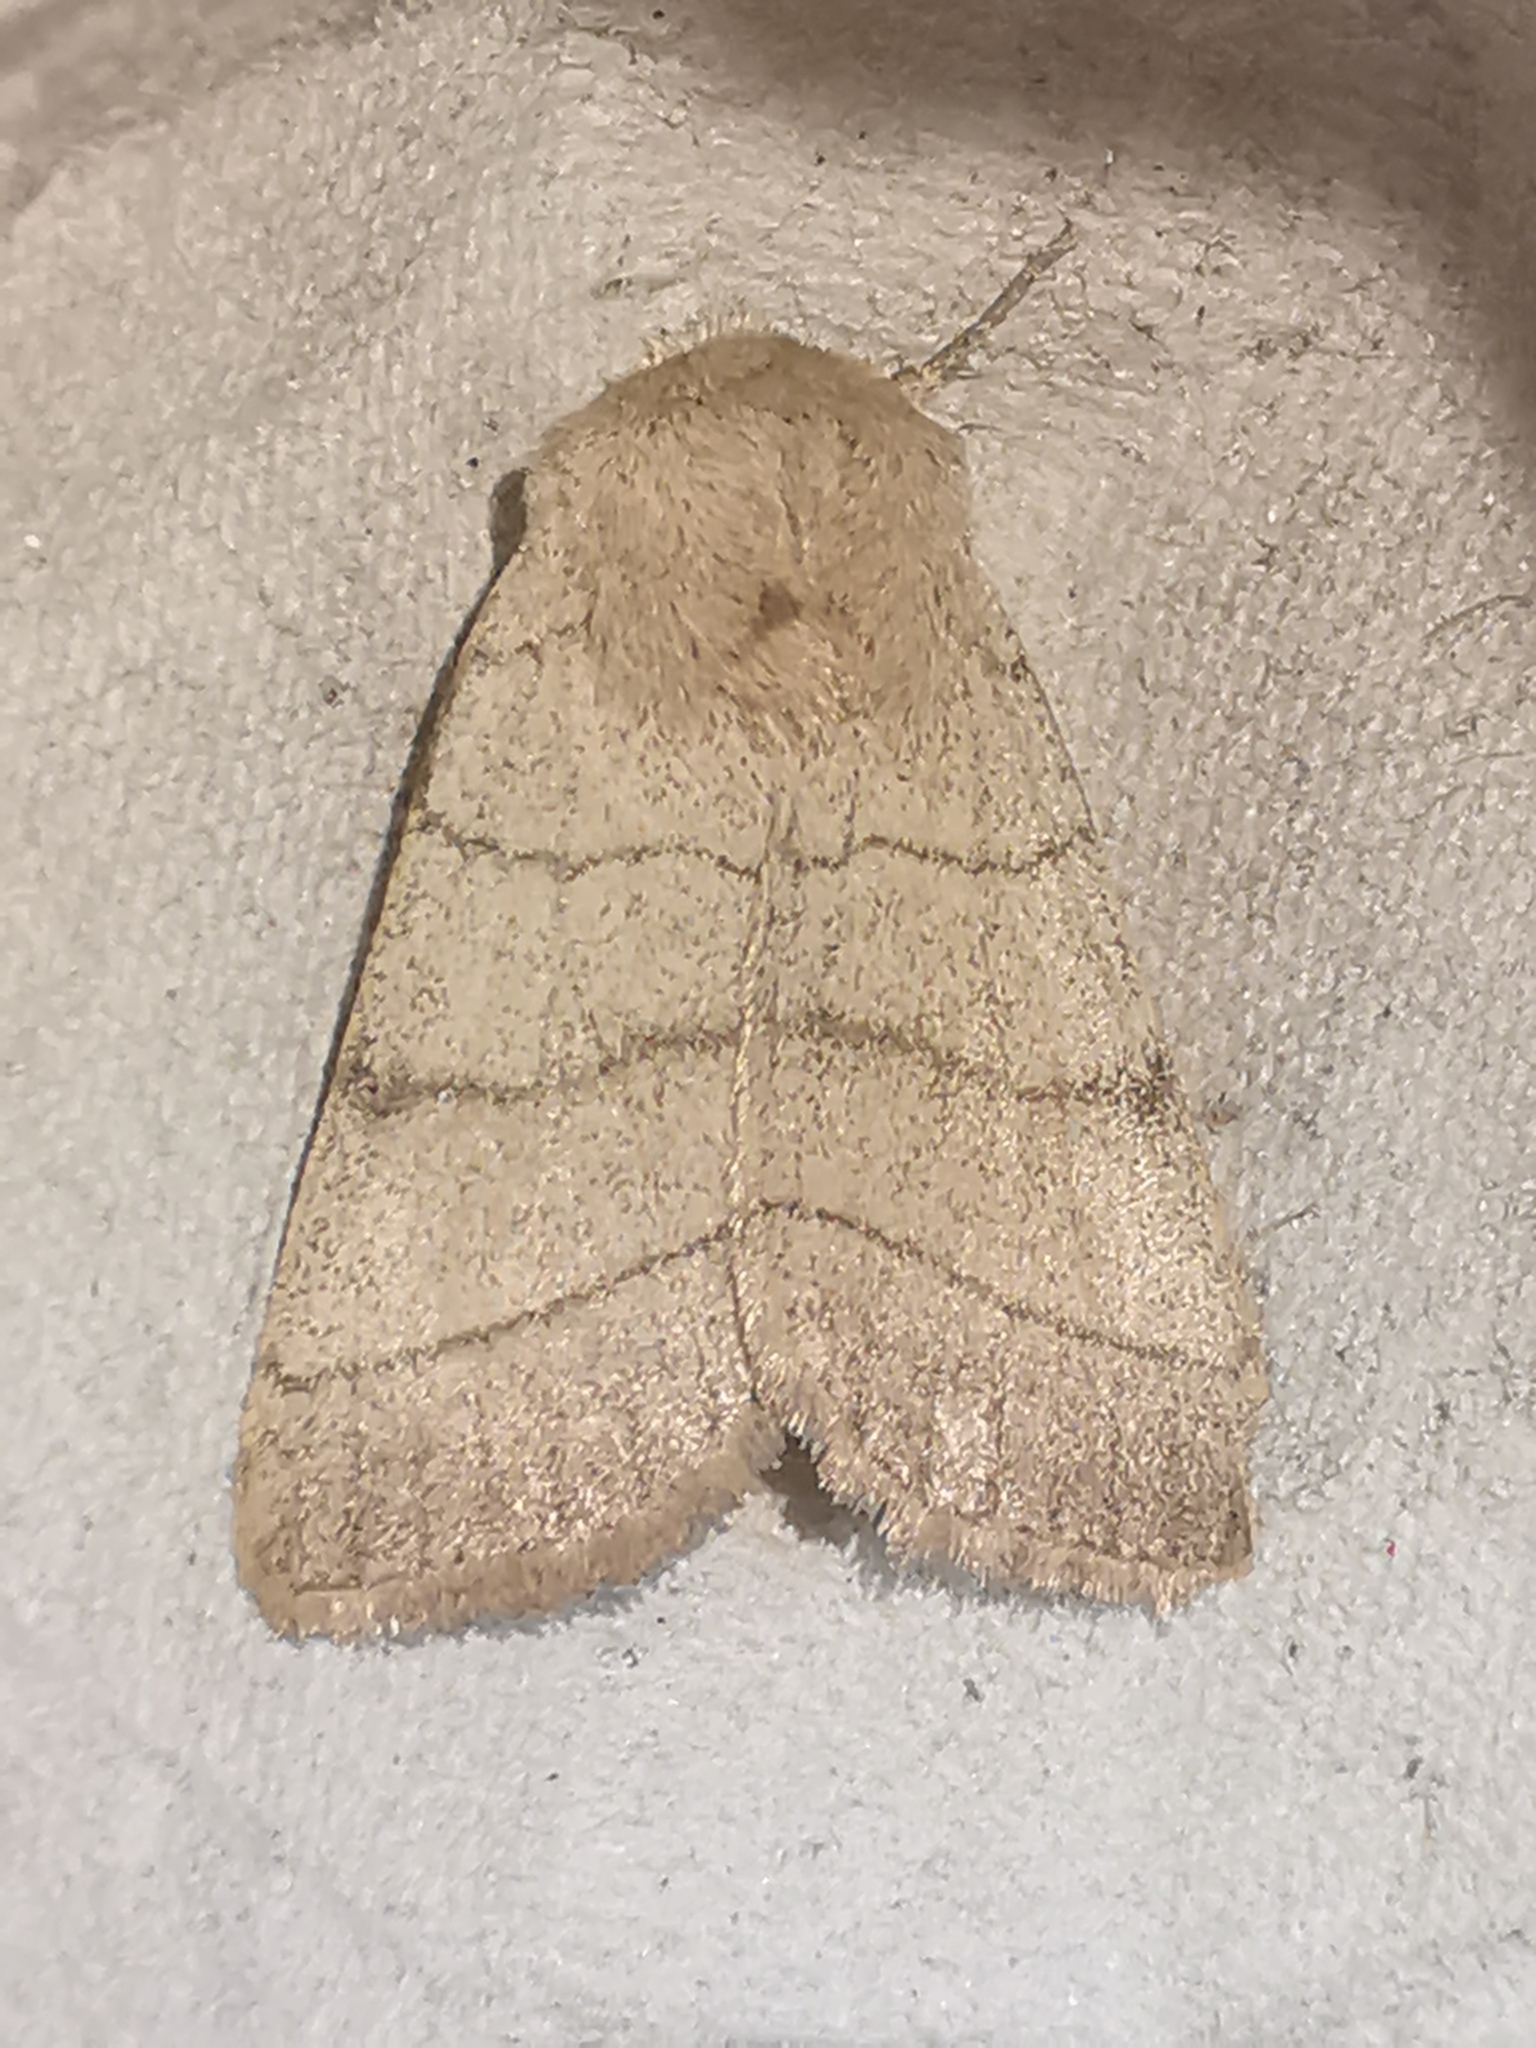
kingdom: Animalia
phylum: Arthropoda
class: Insecta
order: Lepidoptera
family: Noctuidae
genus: Charanyca
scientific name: Charanyca trigrammica
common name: Treble lines
